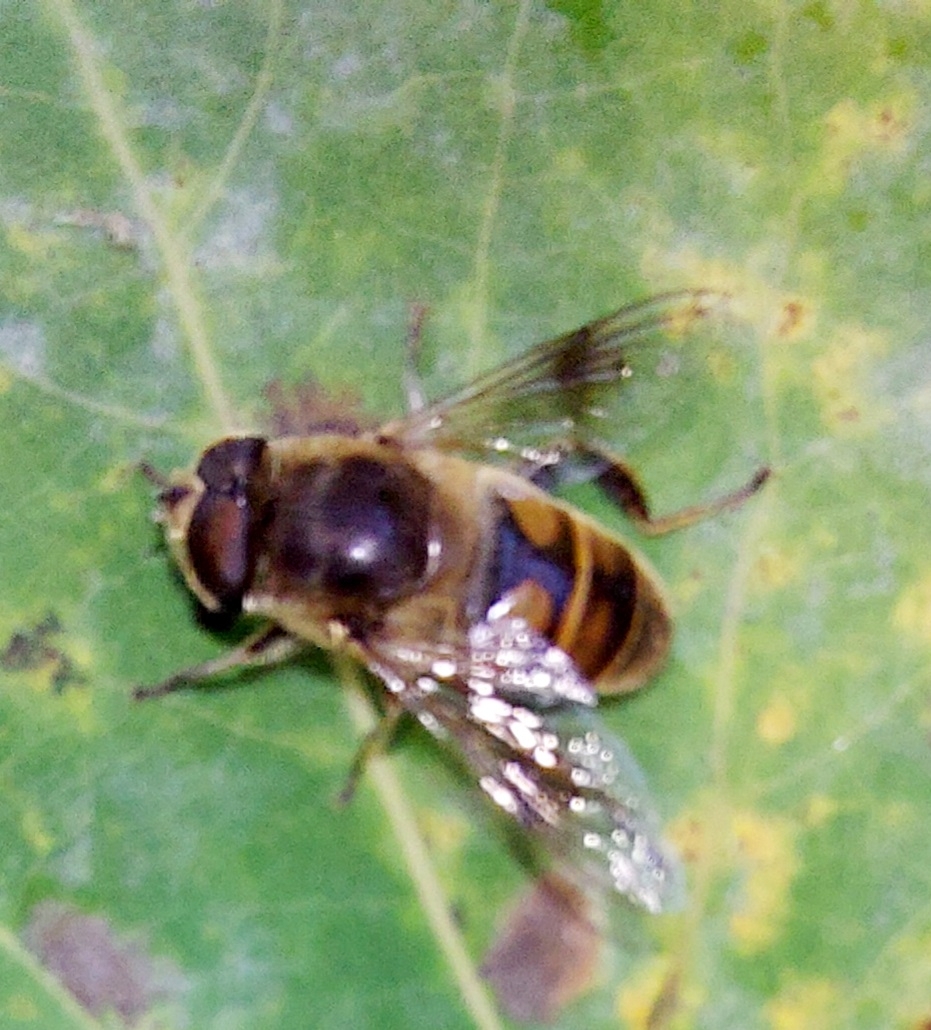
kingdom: Animalia
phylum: Arthropoda
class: Insecta
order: Diptera
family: Syrphidae
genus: Eristalis
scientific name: Eristalis tenax
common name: Drone fly
